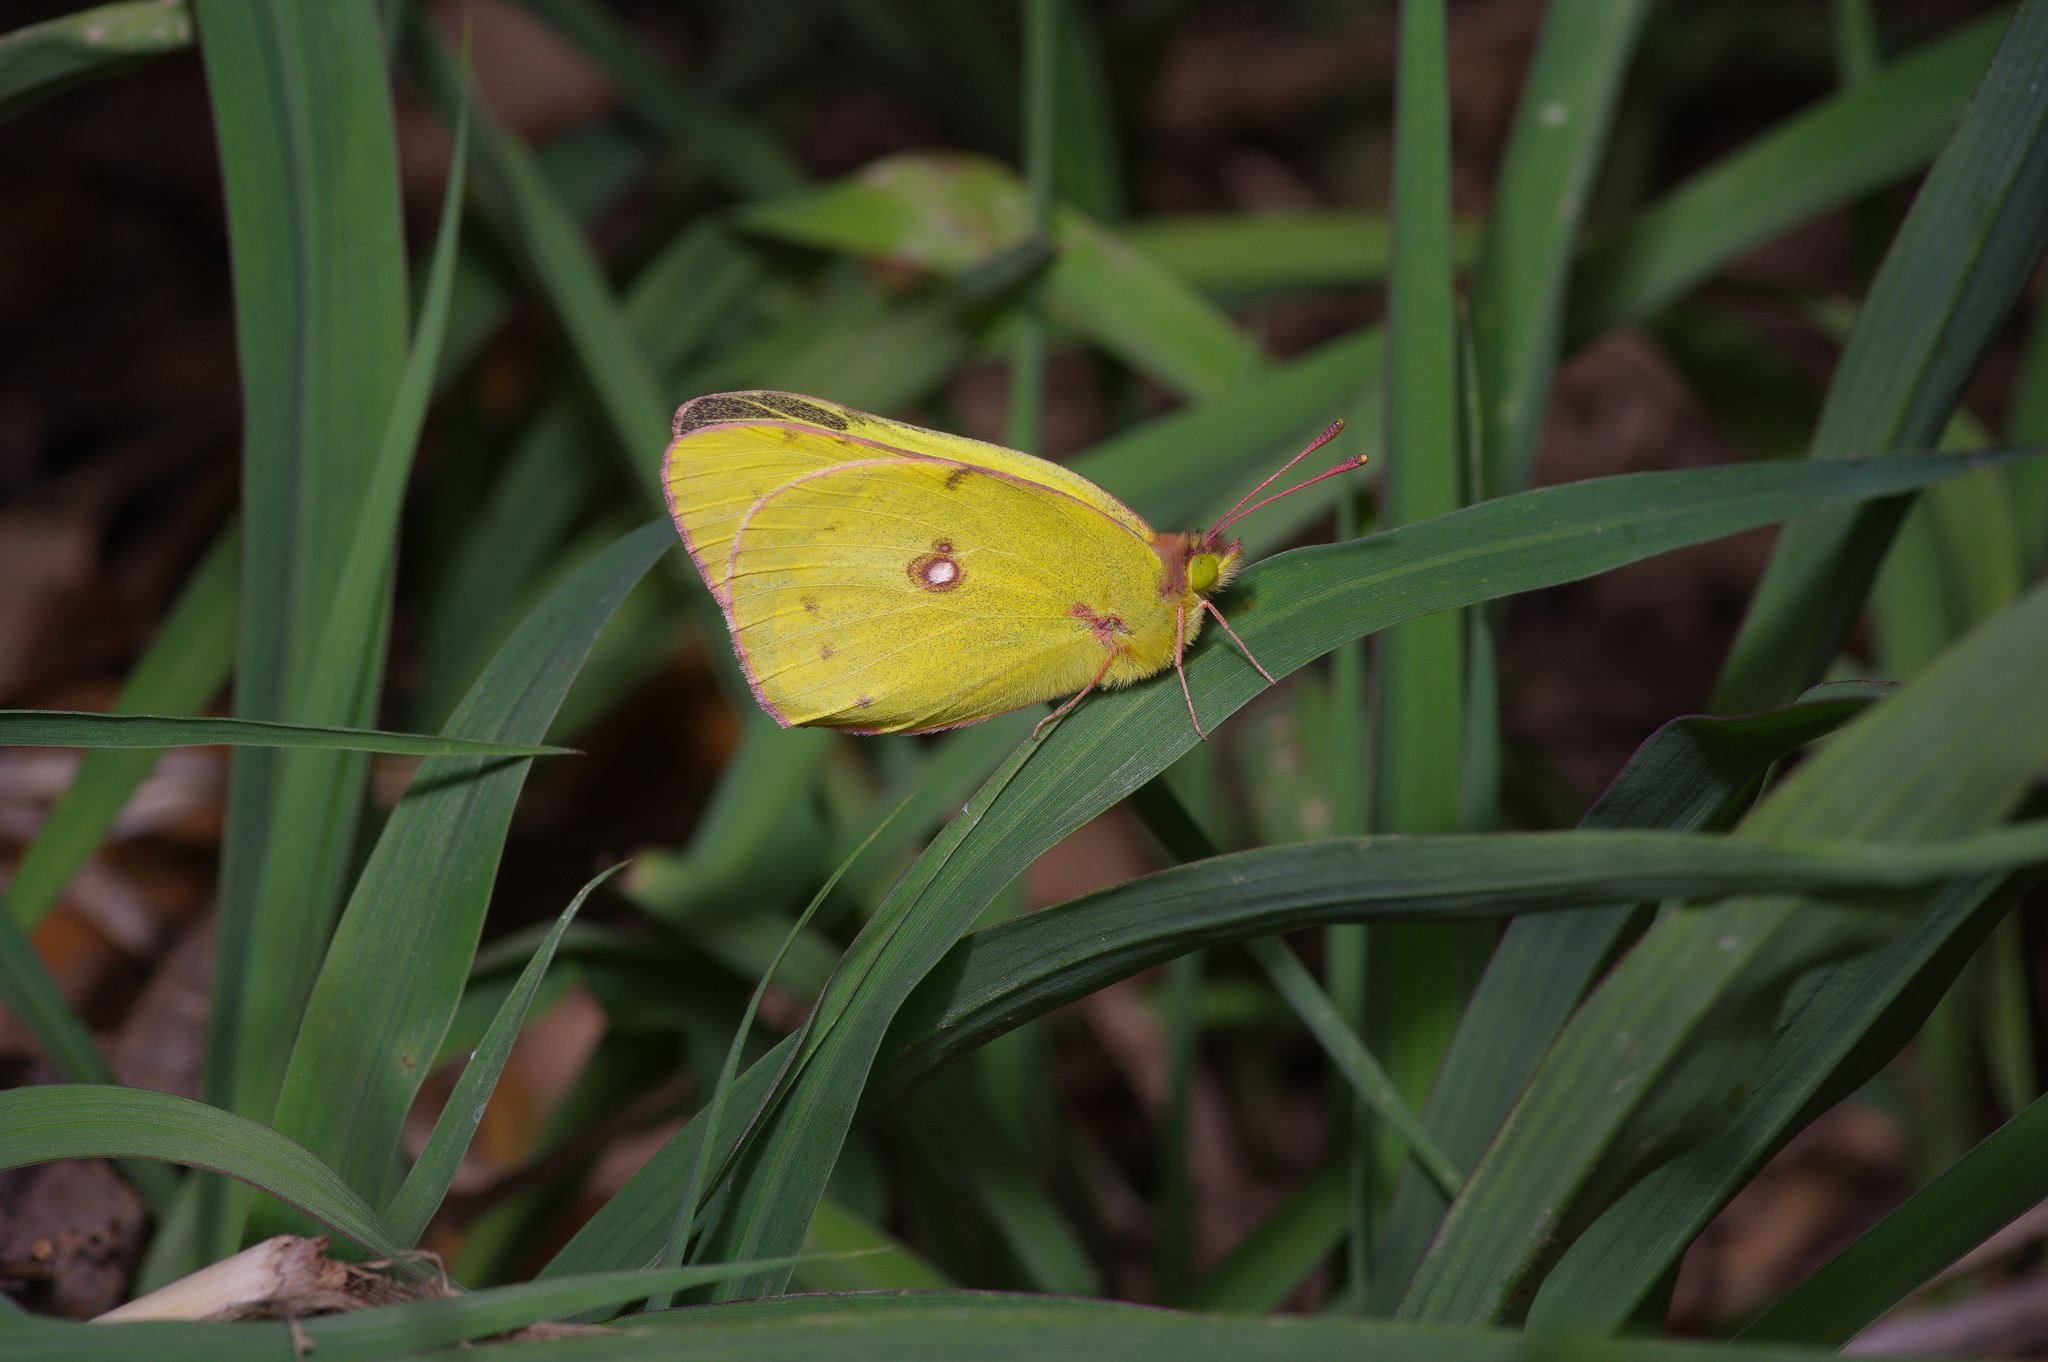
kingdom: Animalia
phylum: Arthropoda
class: Insecta
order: Lepidoptera
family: Pieridae
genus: Colias
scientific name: Colias eurytheme
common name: Alfalfa butterfly
